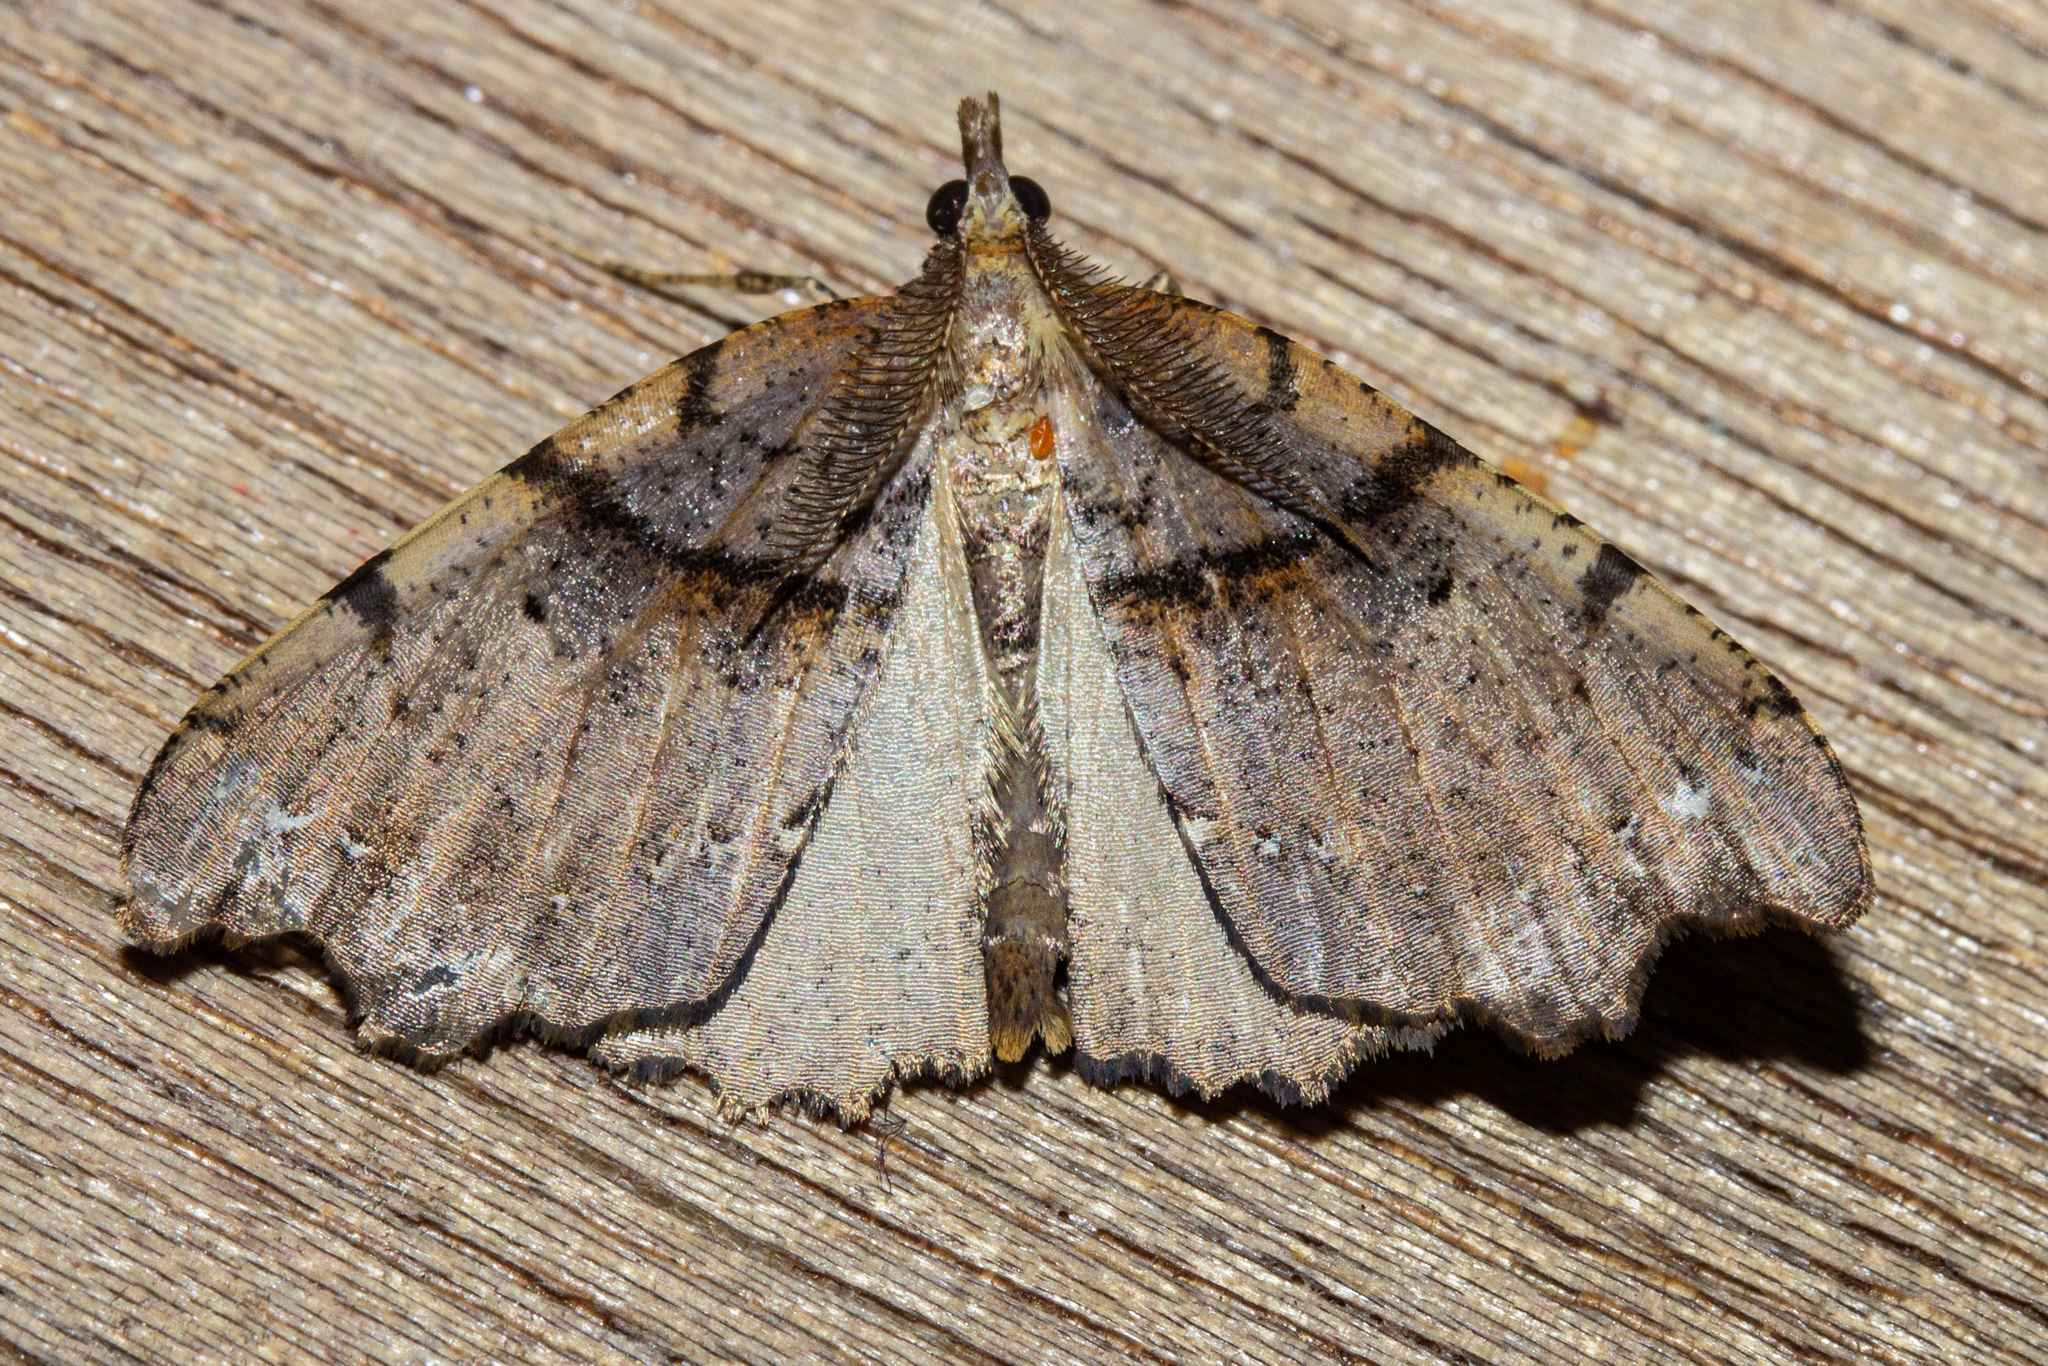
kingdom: Animalia
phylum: Arthropoda
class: Insecta
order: Lepidoptera
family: Geometridae
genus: Chalastra
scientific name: Chalastra pellurgata
